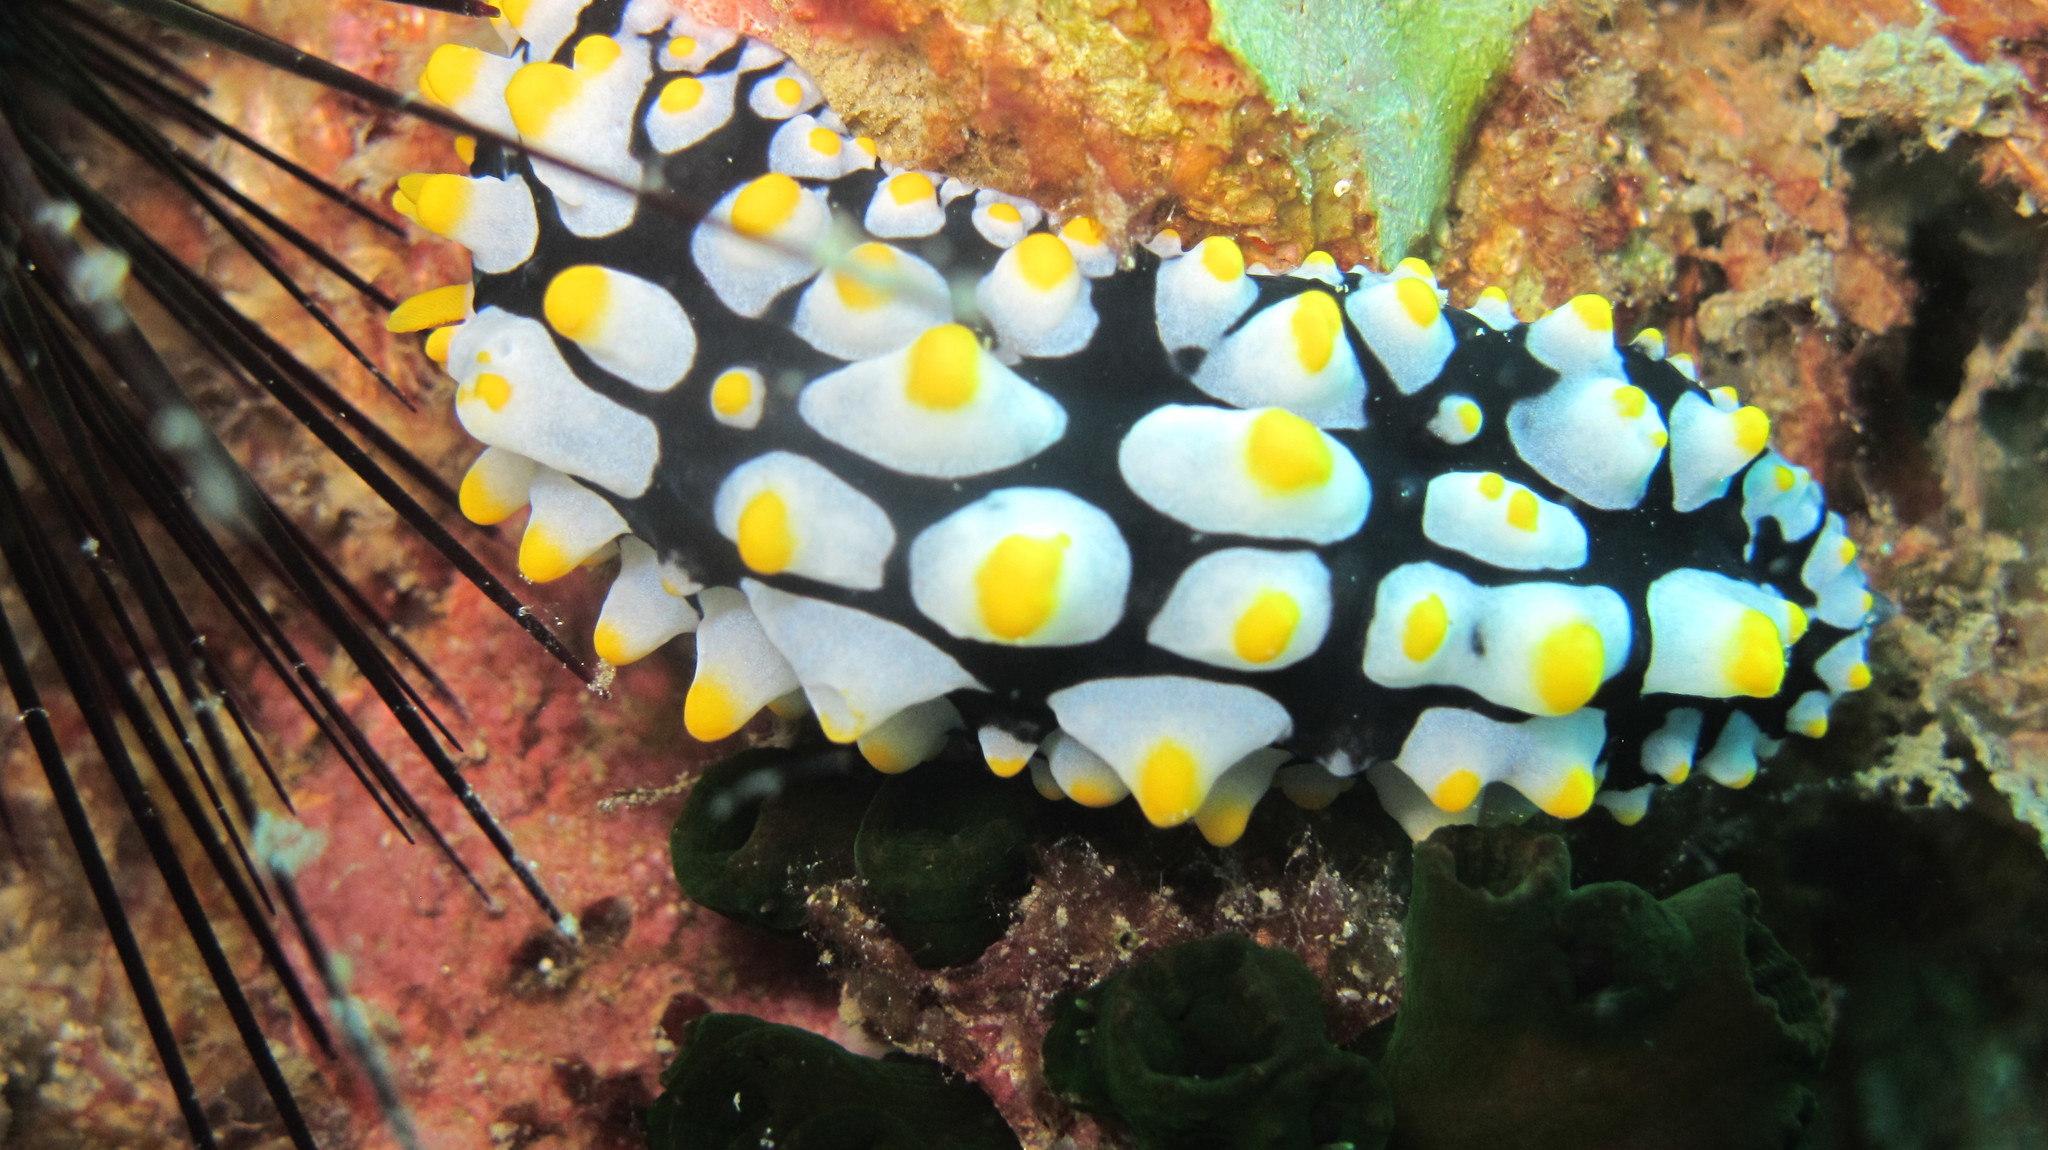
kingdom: Animalia
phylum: Mollusca
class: Gastropoda
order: Nudibranchia
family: Phyllidiidae
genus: Phyllidia
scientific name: Phyllidia varicosa
